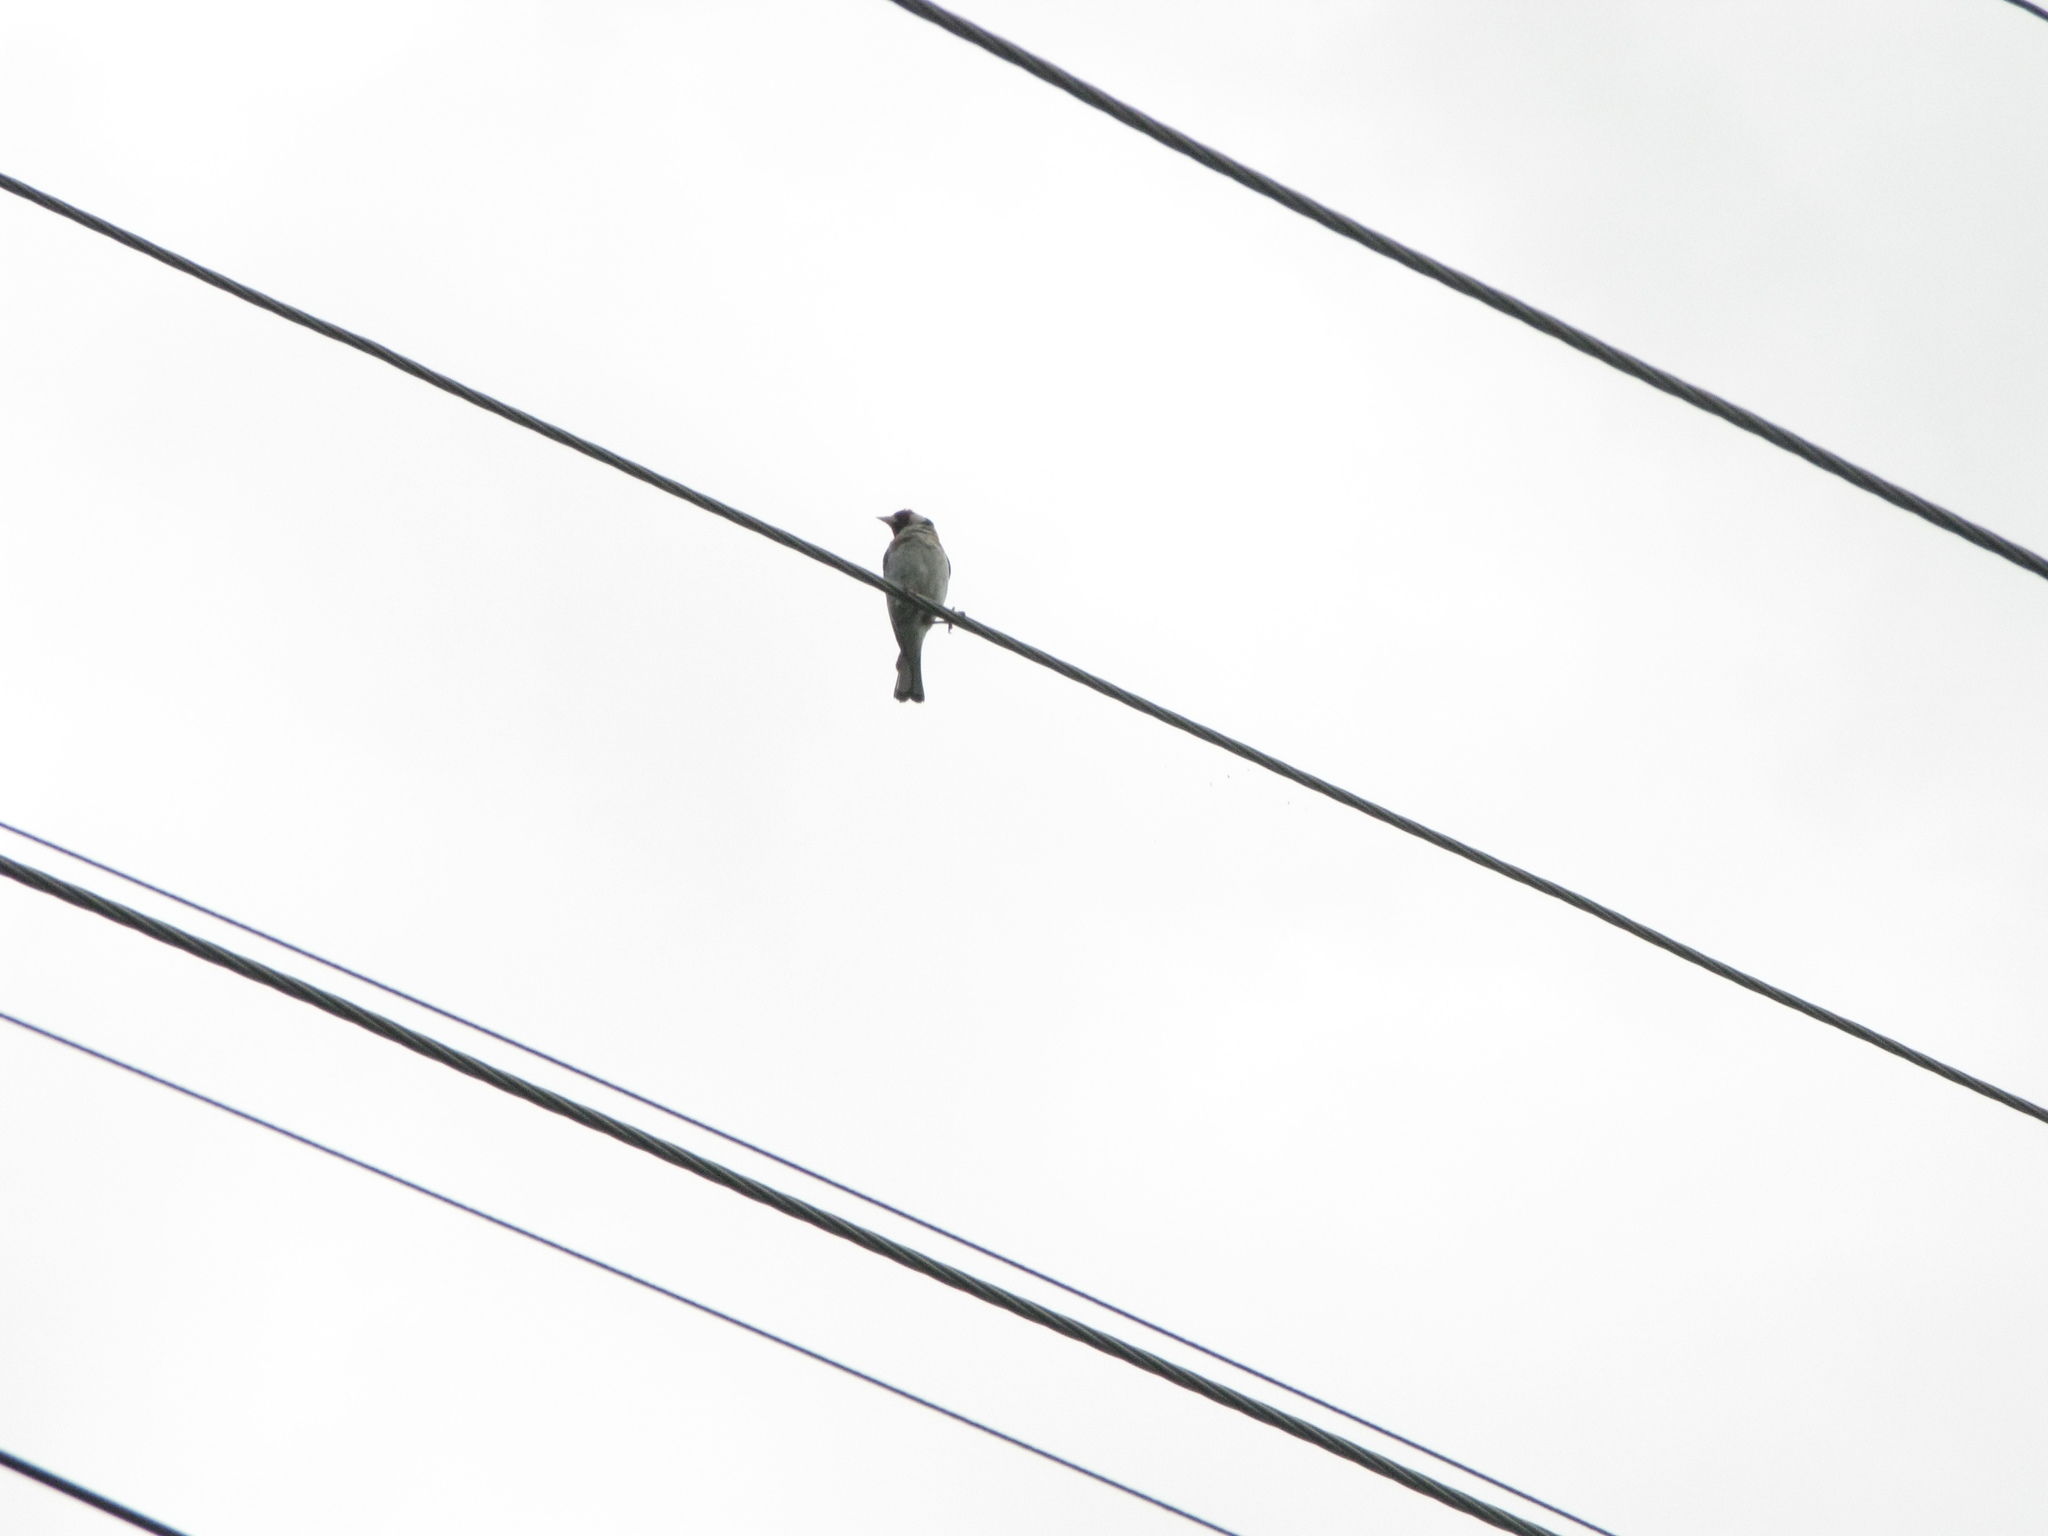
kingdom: Animalia
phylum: Chordata
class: Aves
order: Passeriformes
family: Fringillidae
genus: Carduelis
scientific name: Carduelis carduelis
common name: European goldfinch
